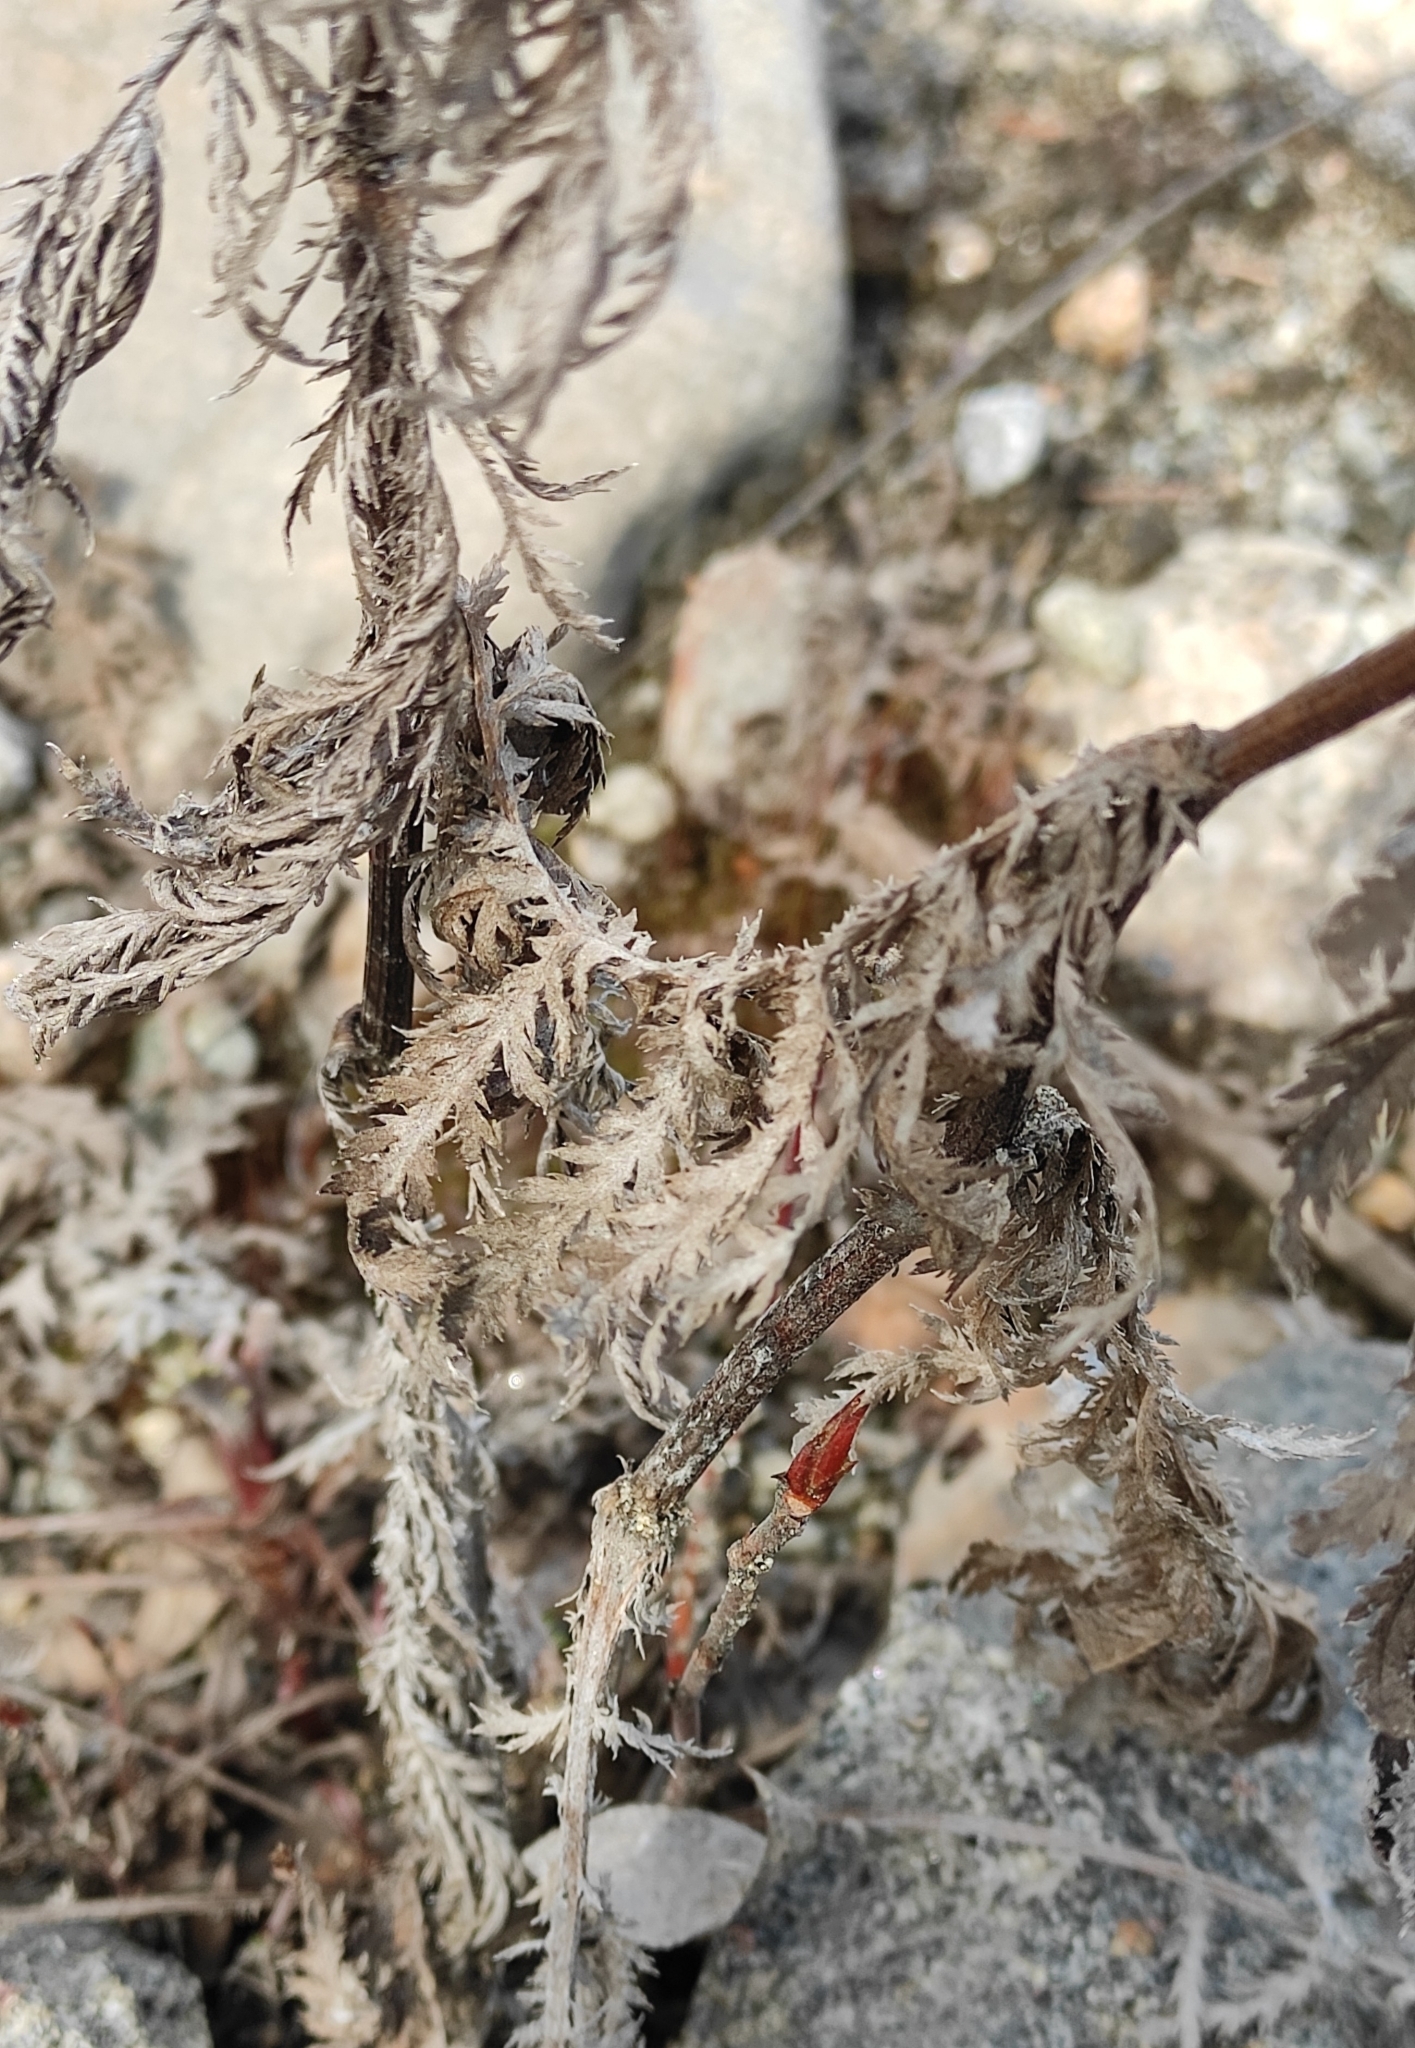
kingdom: Plantae
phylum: Tracheophyta
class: Magnoliopsida
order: Asterales
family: Asteraceae
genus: Tanacetum
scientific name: Tanacetum vulgare
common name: Common tansy
